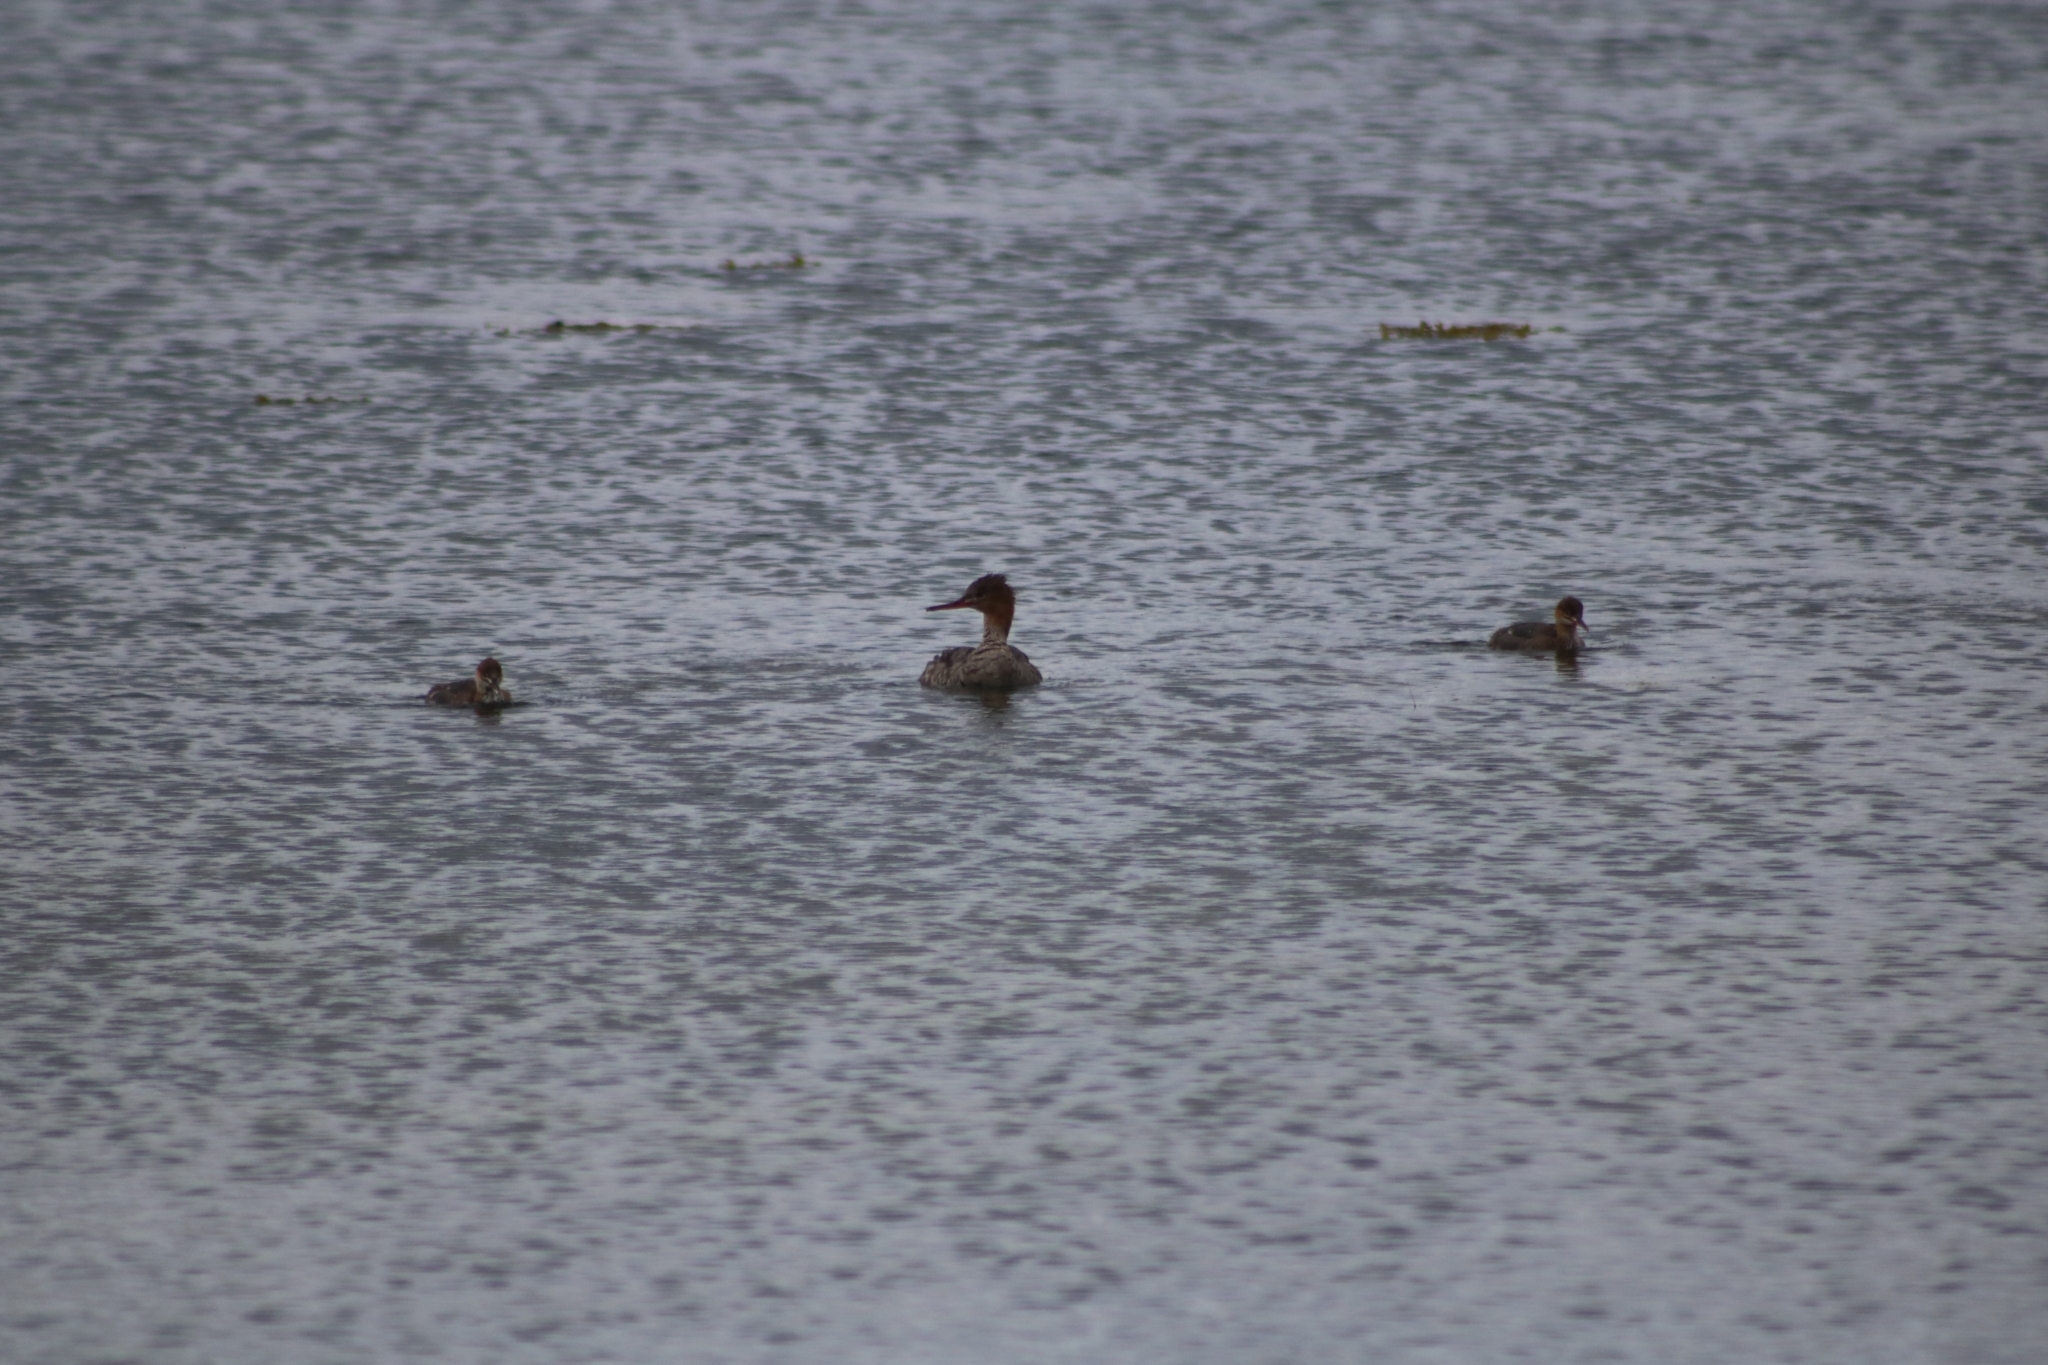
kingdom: Animalia
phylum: Chordata
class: Aves
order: Anseriformes
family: Anatidae
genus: Mergus
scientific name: Mergus serrator
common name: Red-breasted merganser
